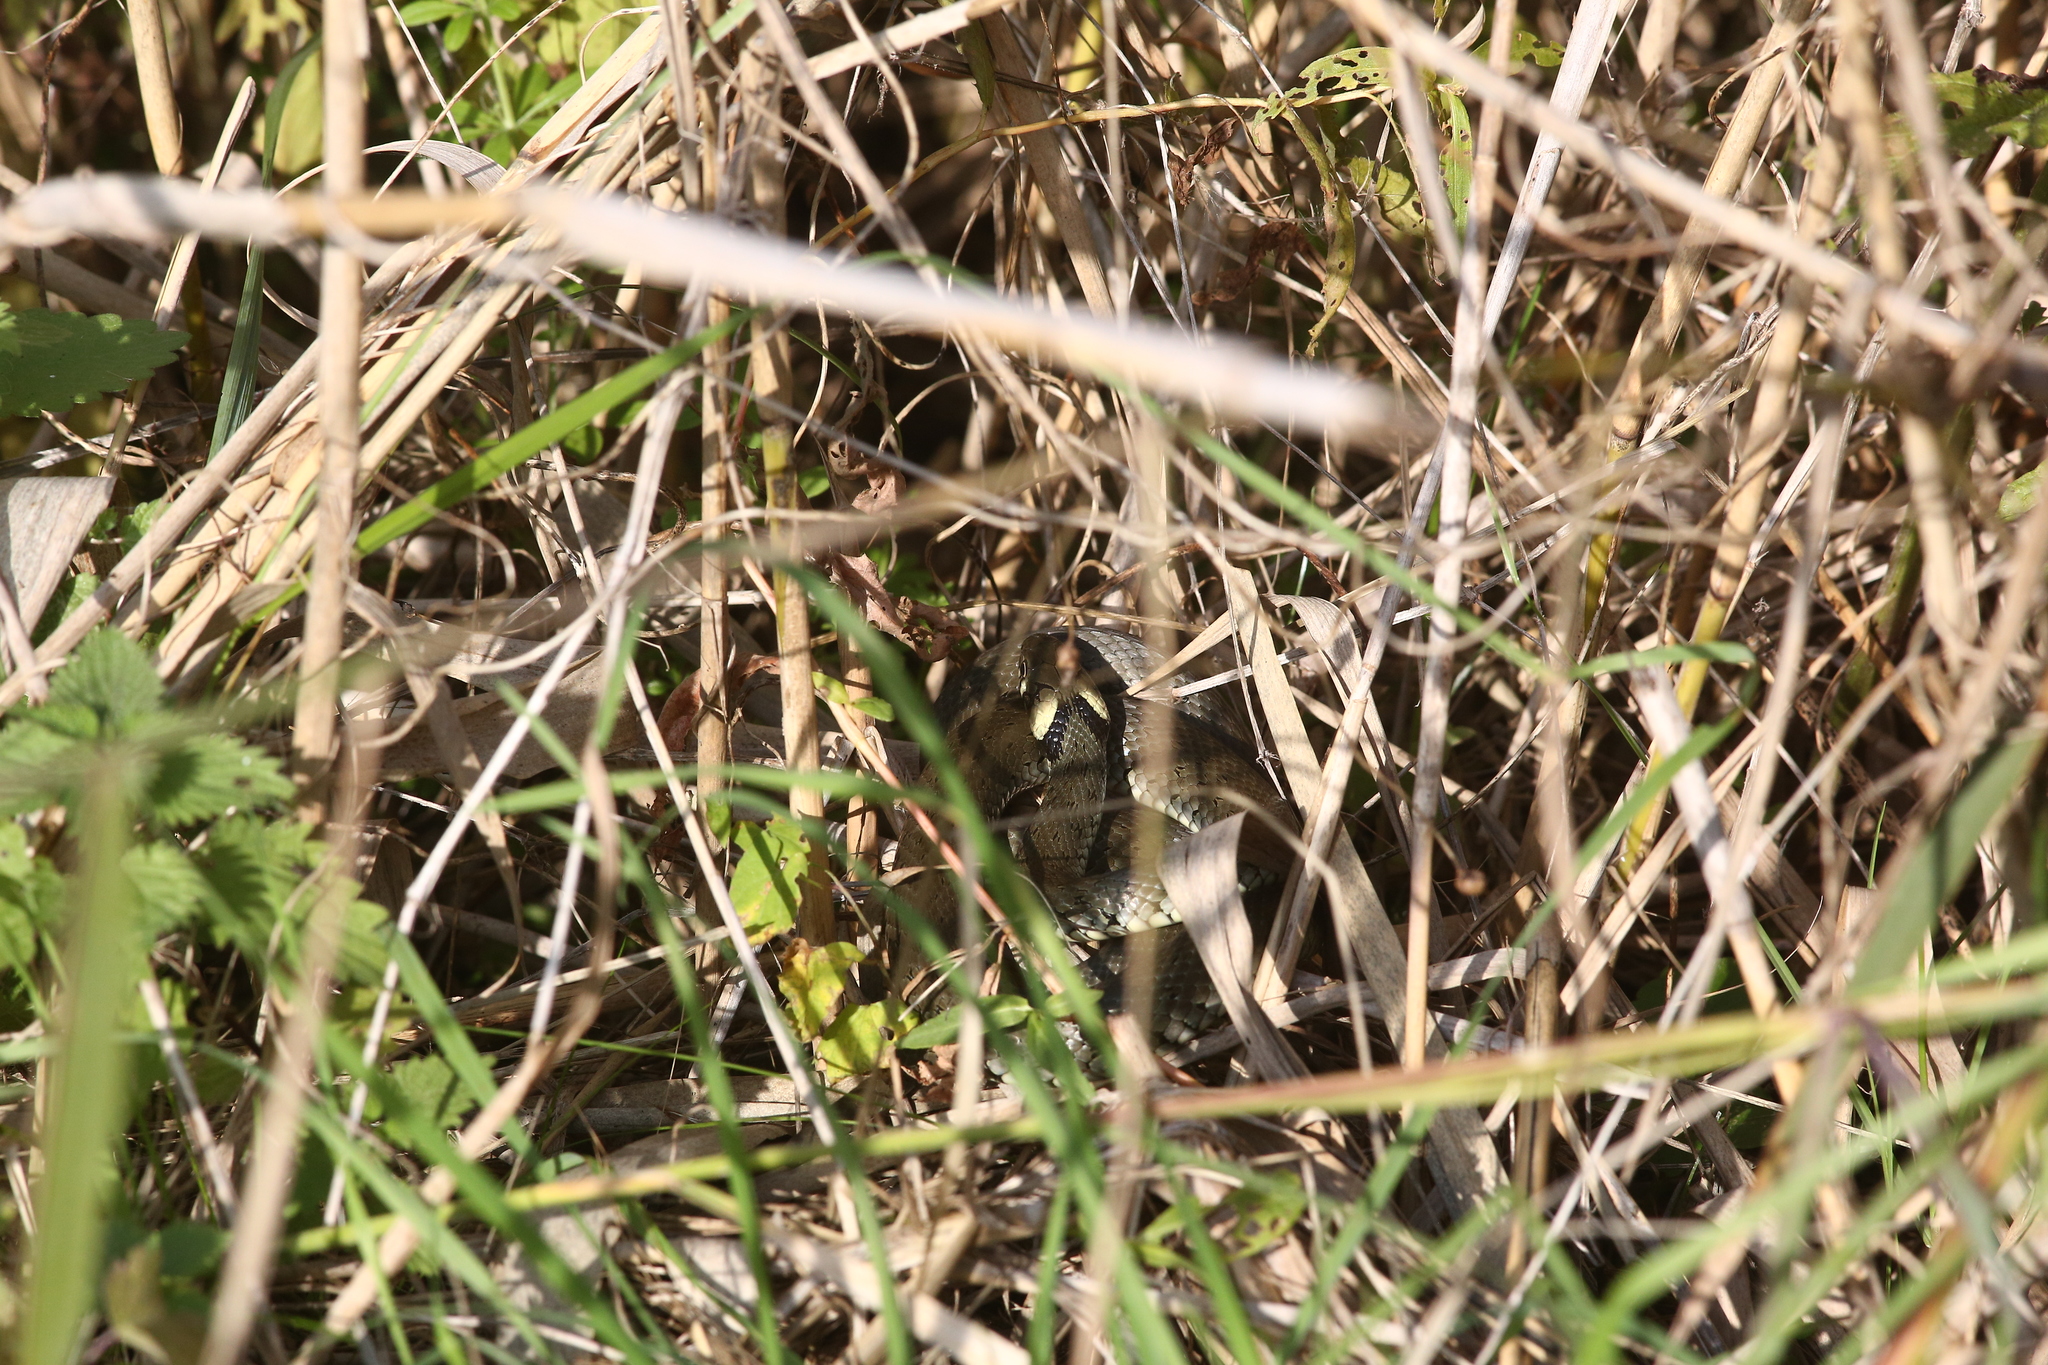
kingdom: Animalia
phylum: Chordata
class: Squamata
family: Colubridae
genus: Natrix
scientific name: Natrix natrix
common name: Grass snake
